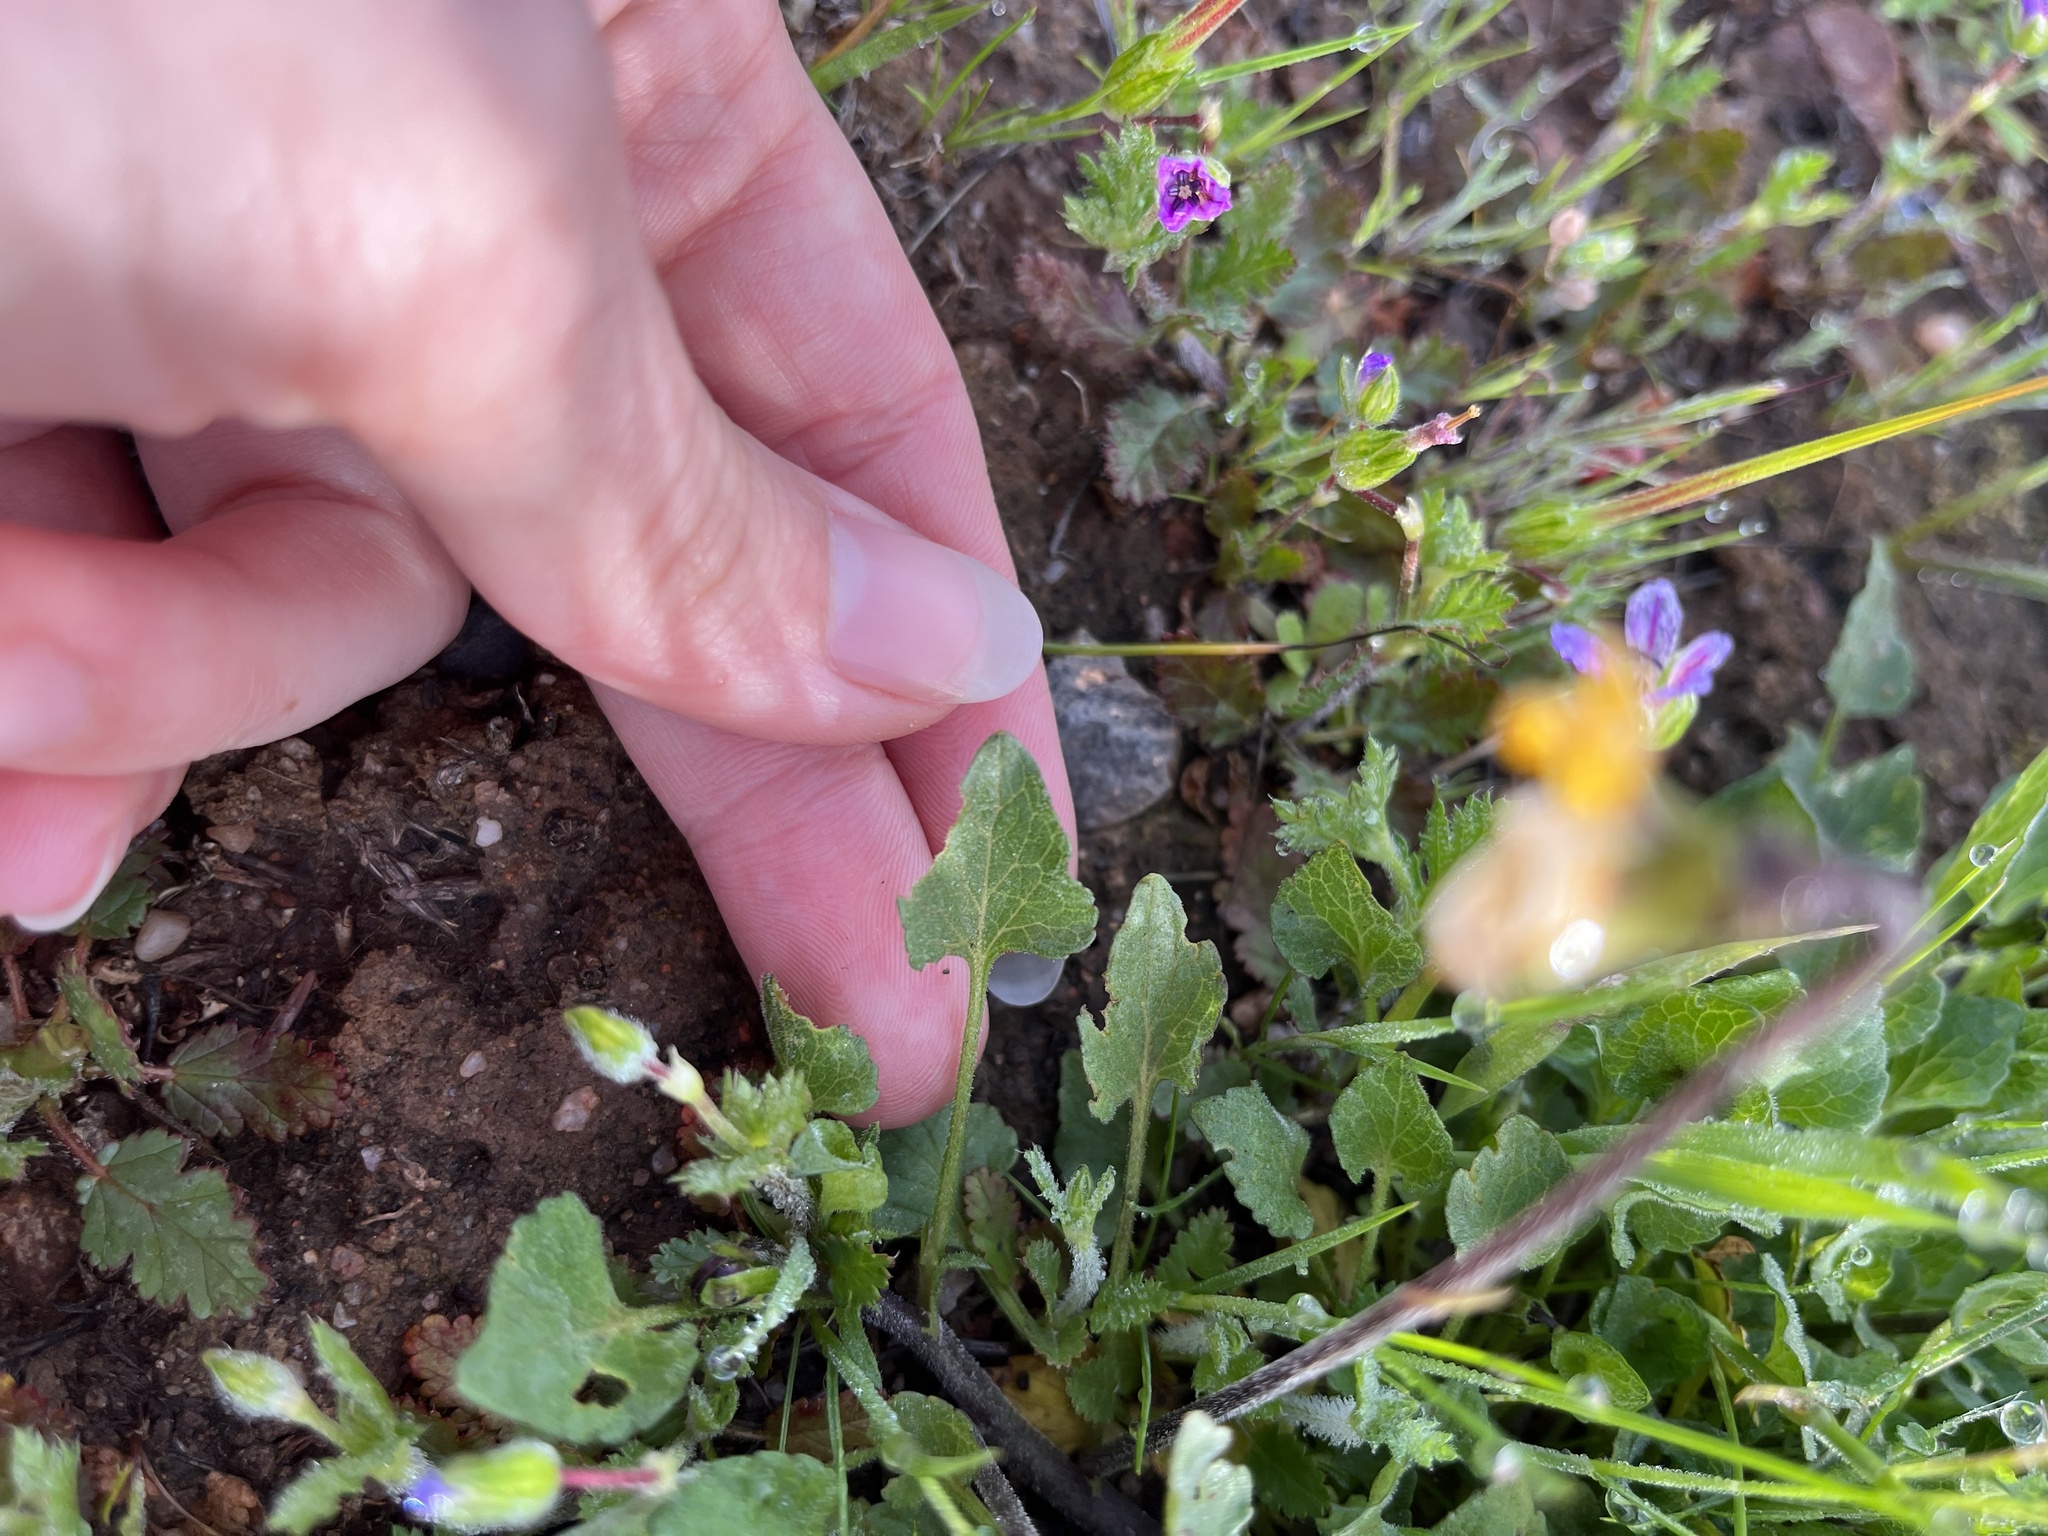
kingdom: Plantae
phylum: Tracheophyta
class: Magnoliopsida
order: Malpighiales
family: Violaceae
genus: Viola
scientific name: Viola pedunculata
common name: California golden violet
